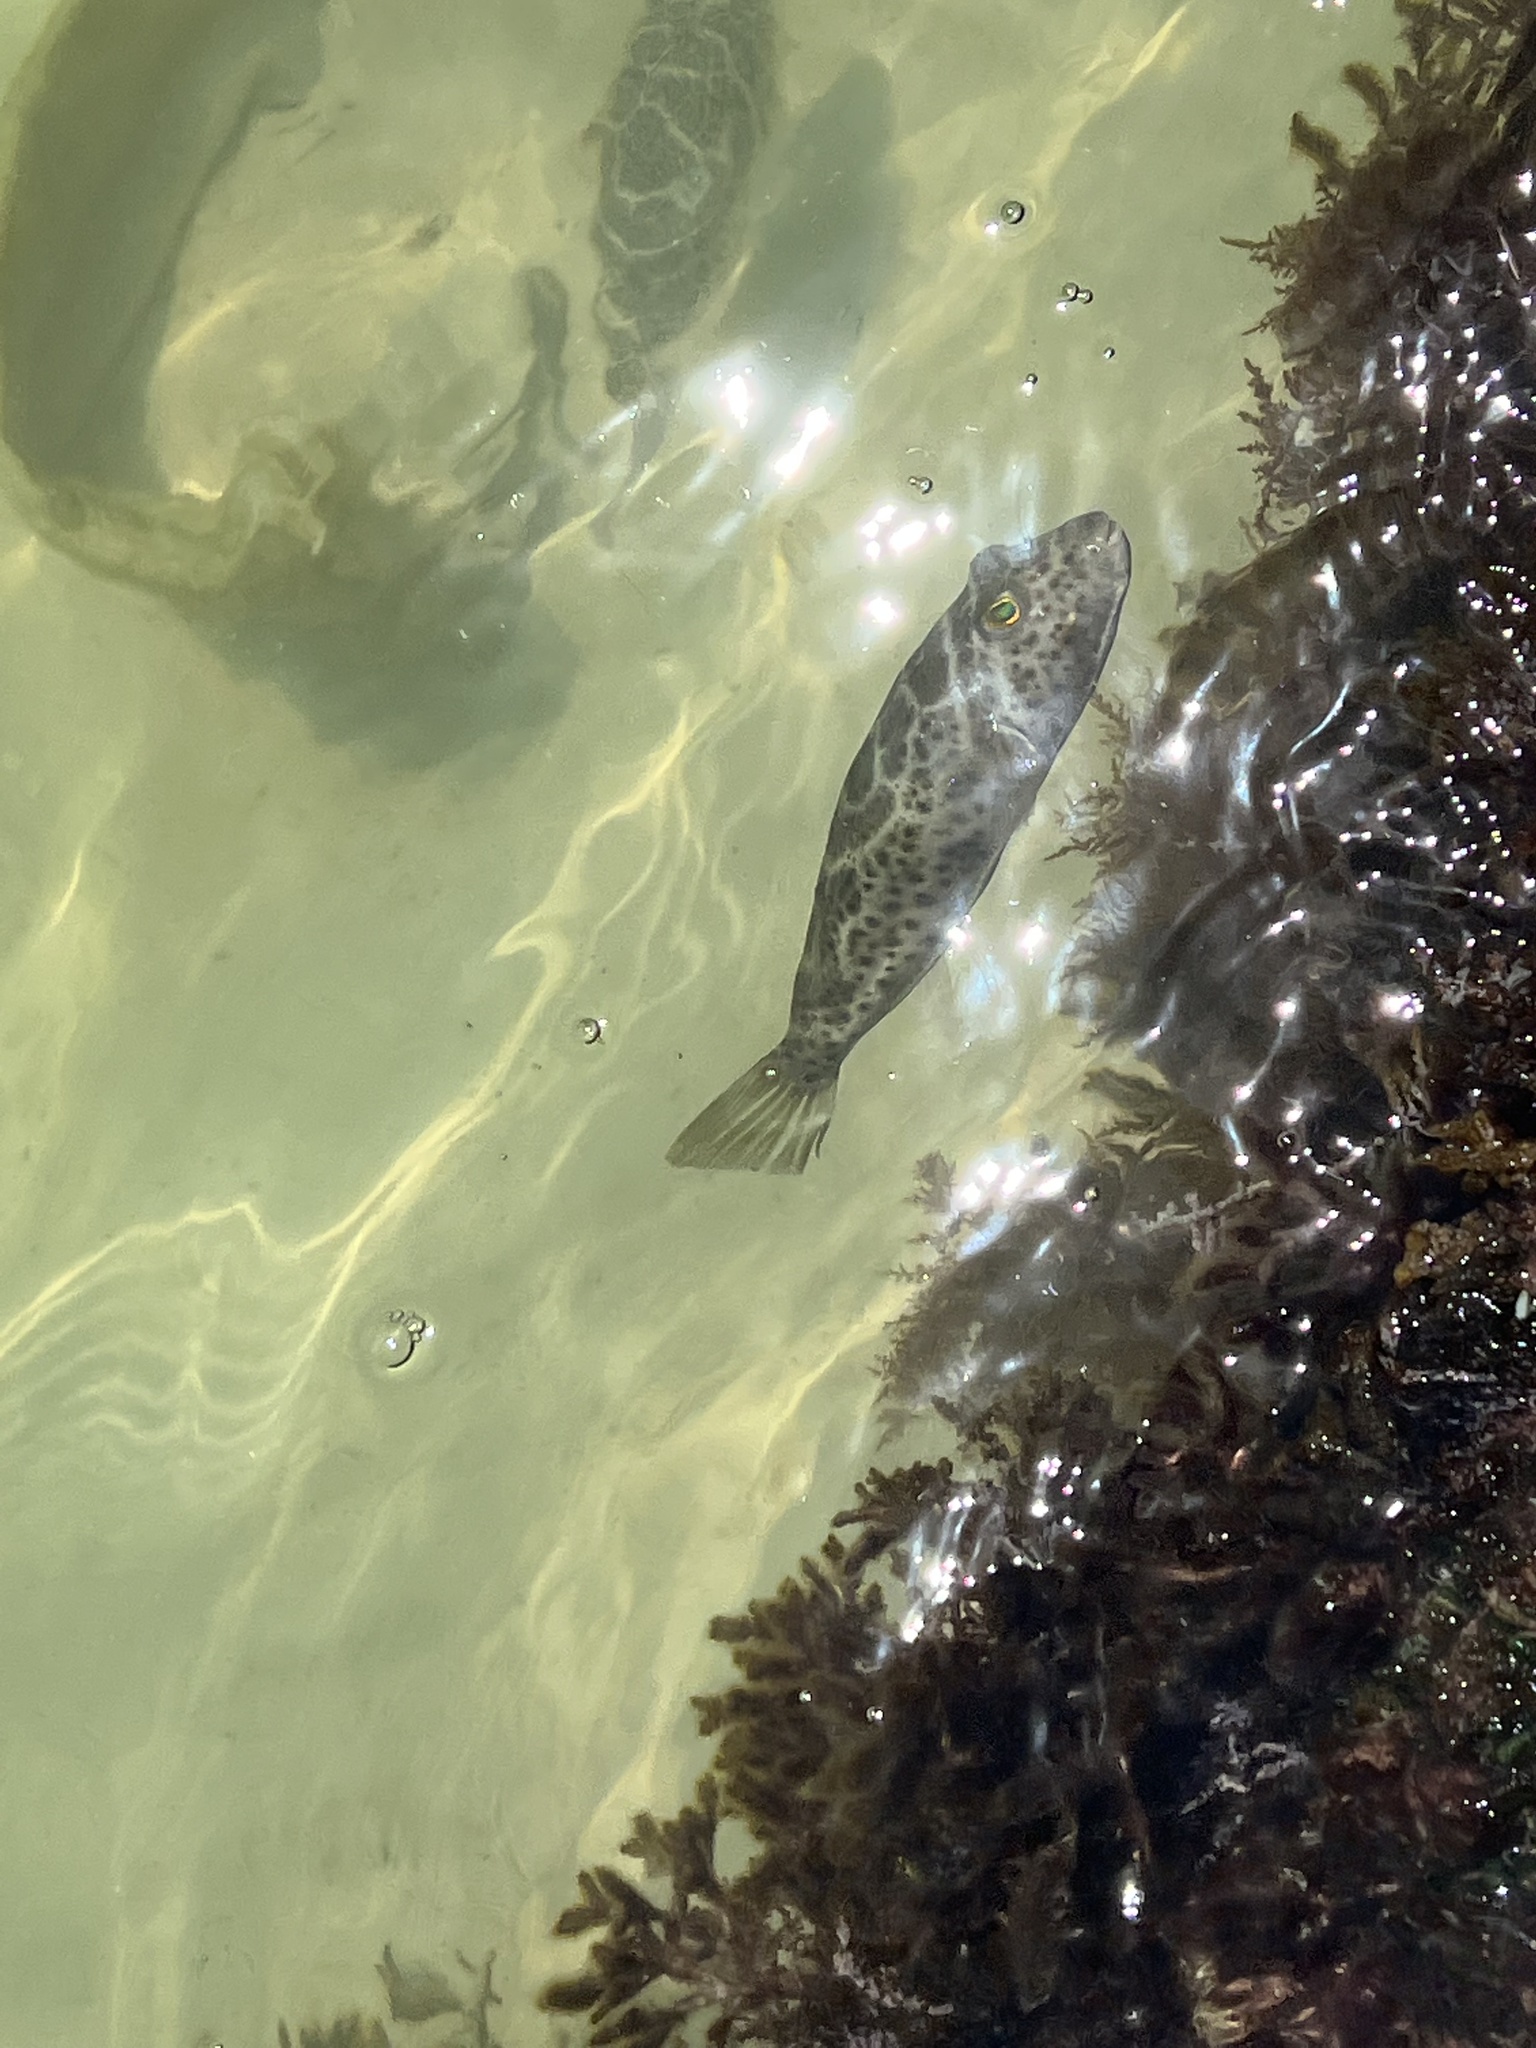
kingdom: Animalia
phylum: Chordata
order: Tetraodontiformes
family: Tetraodontidae
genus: Sphoeroides
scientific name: Sphoeroides testudineus
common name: Checkered puffer
